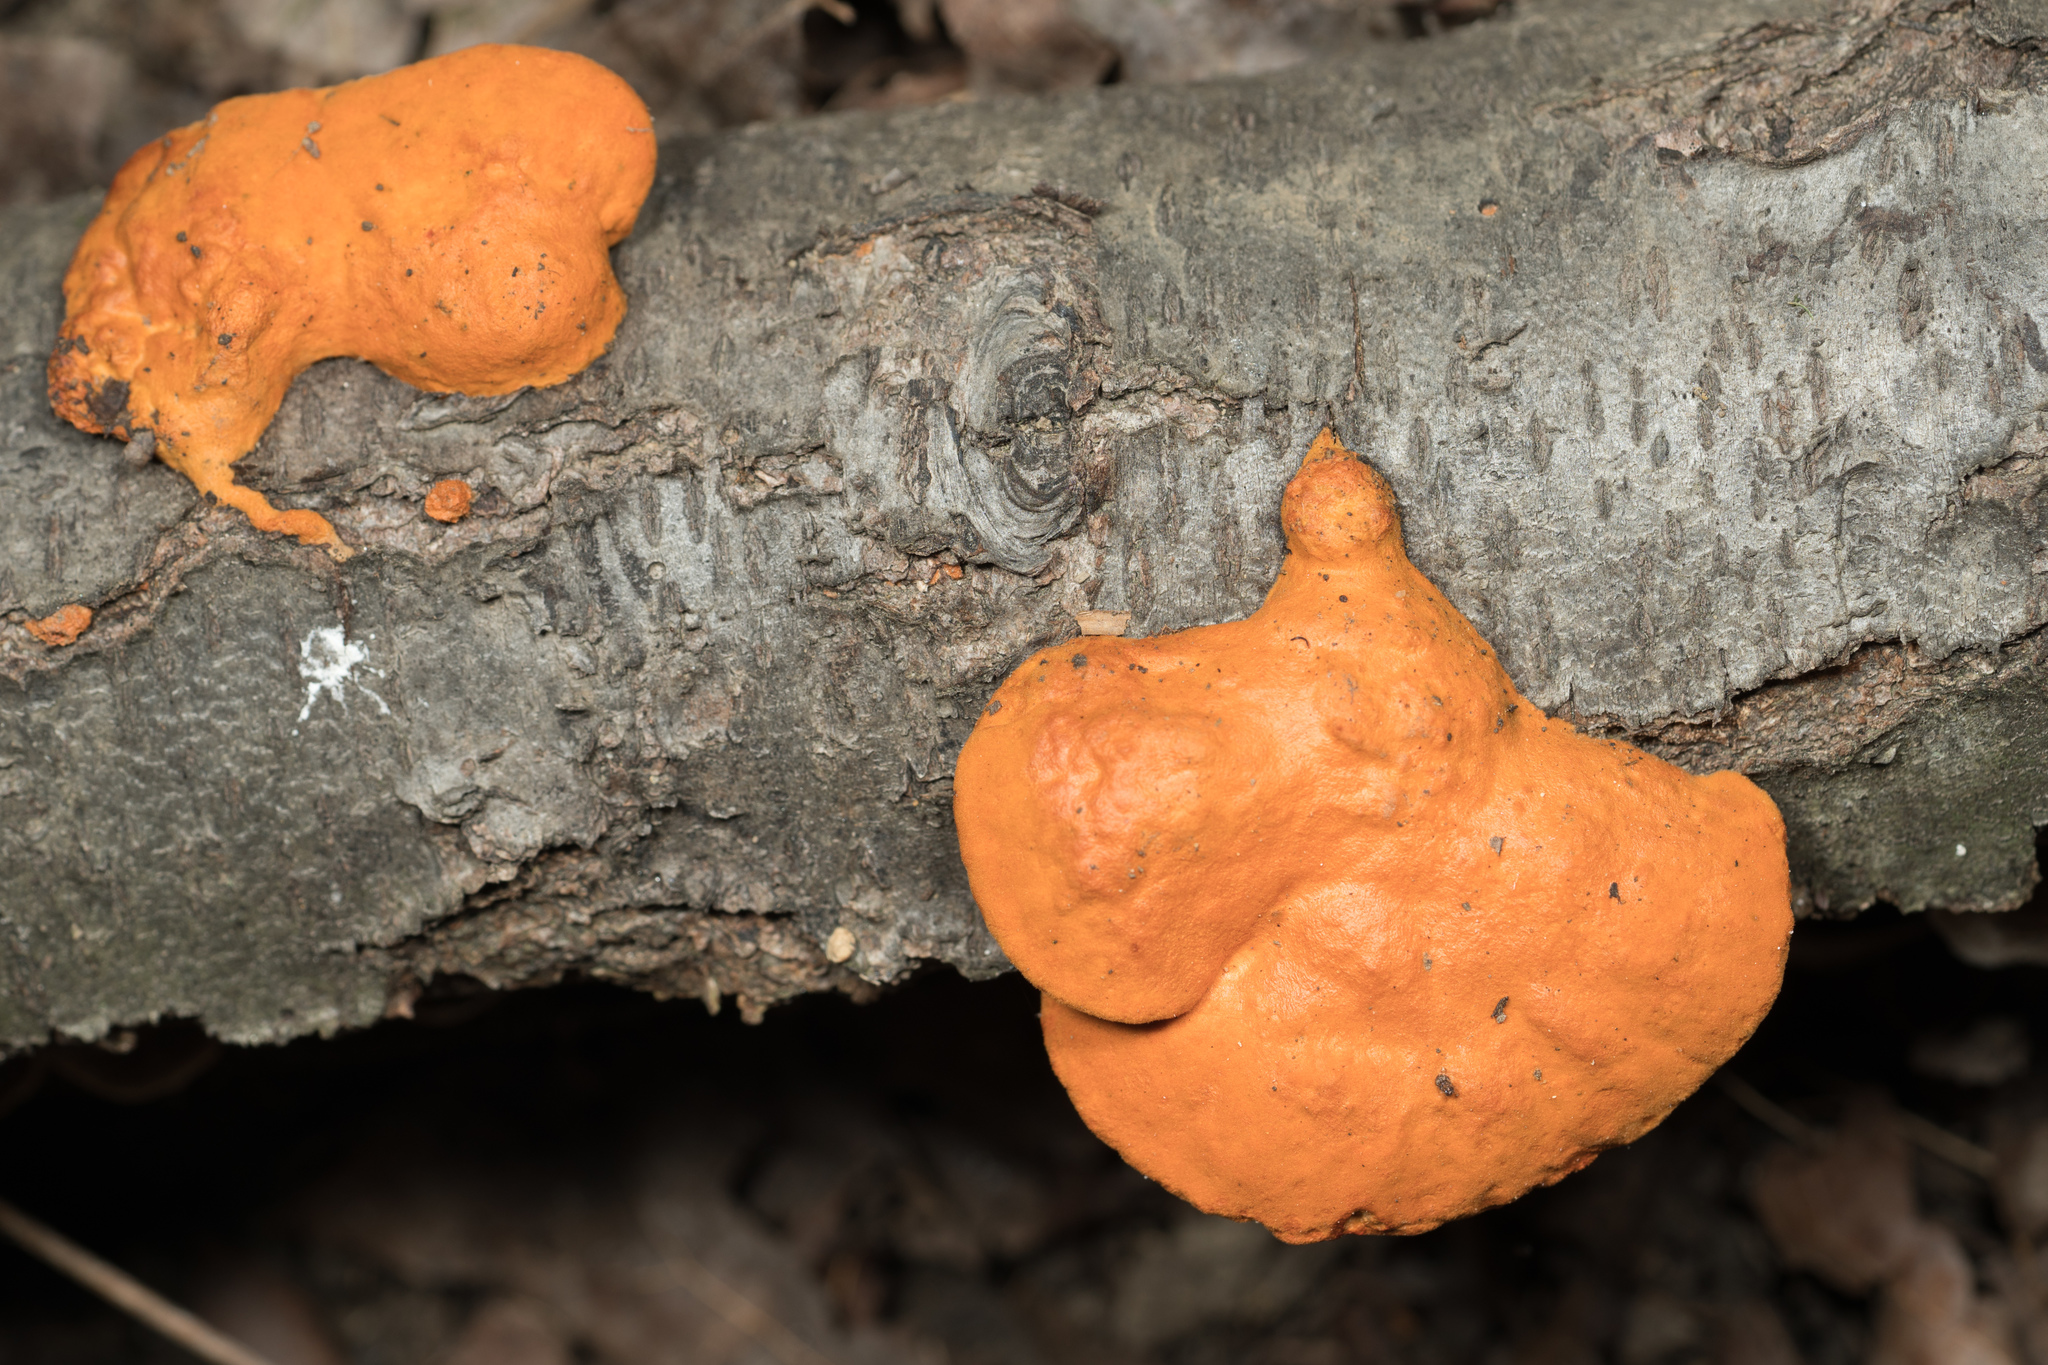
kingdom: Fungi
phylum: Basidiomycota
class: Agaricomycetes
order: Polyporales
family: Polyporaceae
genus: Trametes
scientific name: Trametes cinnabarina
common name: Northern cinnabar polypore
